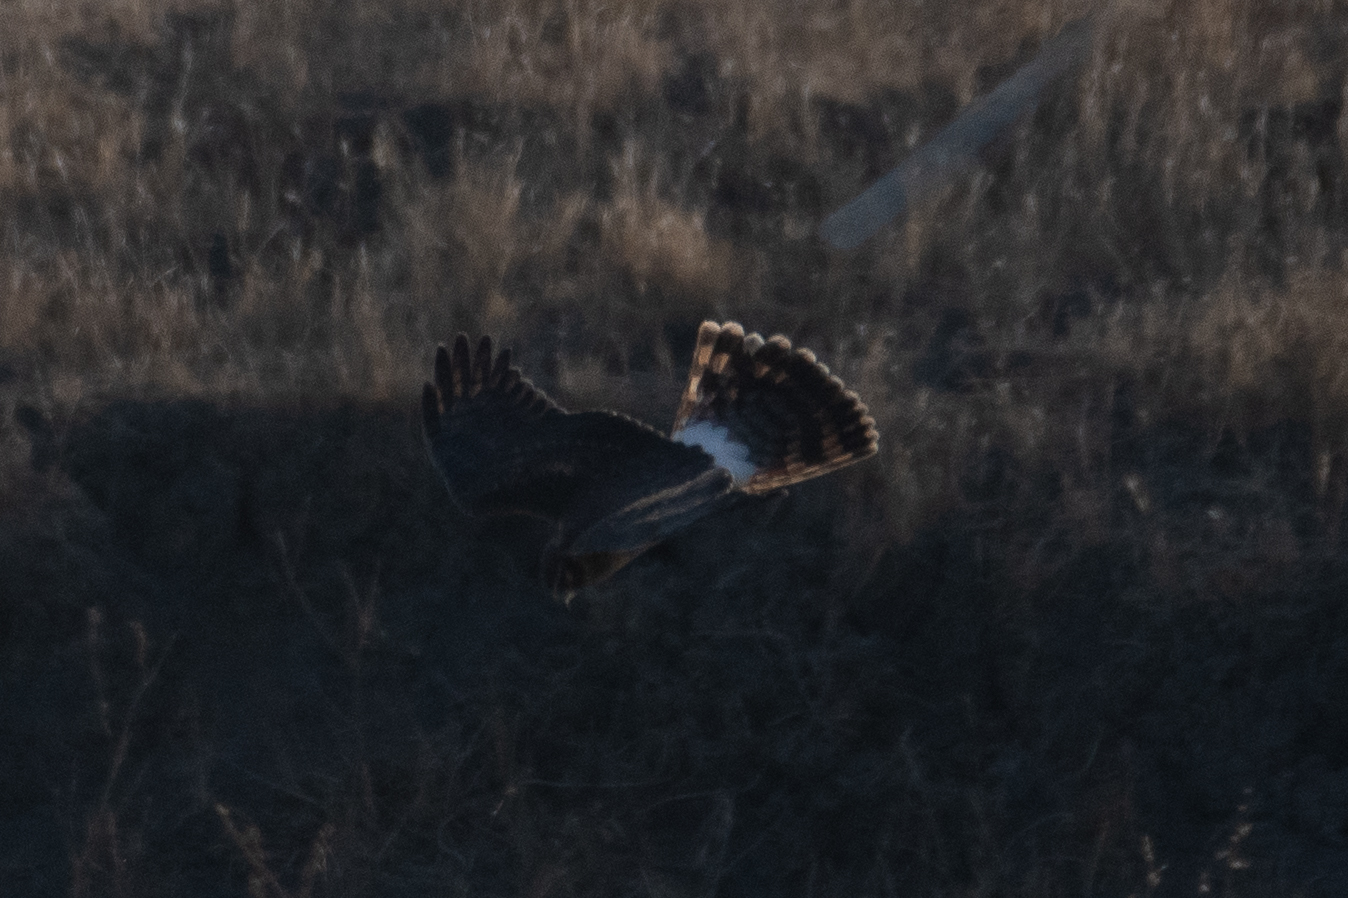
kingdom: Animalia
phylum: Chordata
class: Aves
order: Accipitriformes
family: Accipitridae
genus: Circus
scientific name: Circus cyaneus
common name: Hen harrier
